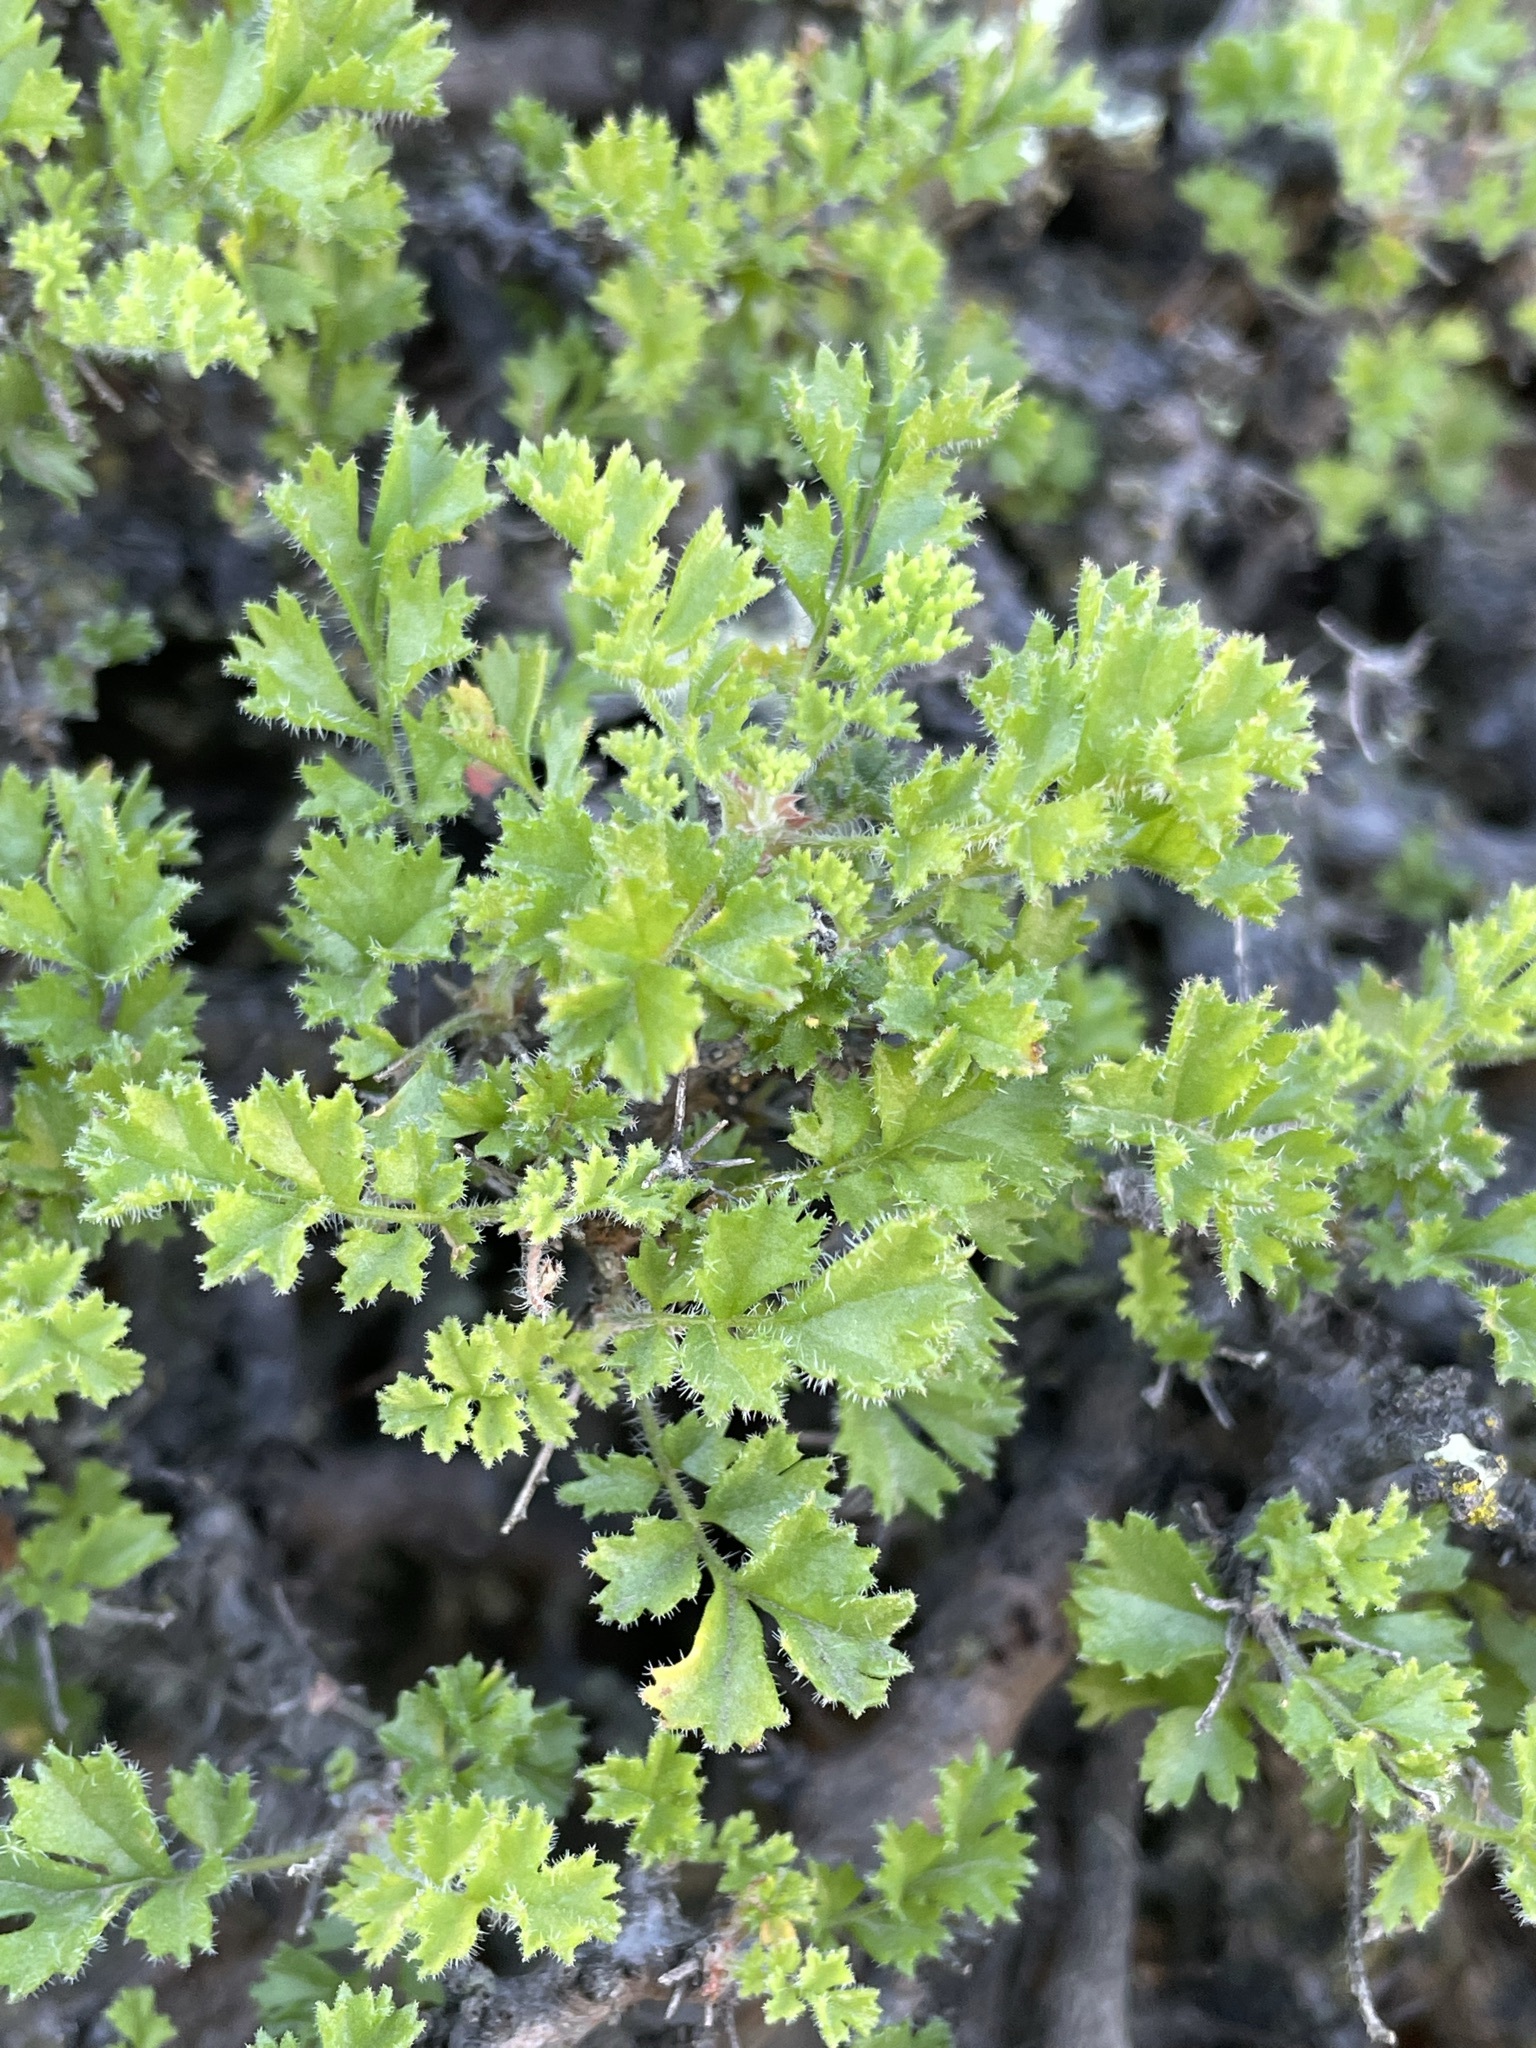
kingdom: Plantae
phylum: Tracheophyta
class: Magnoliopsida
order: Geraniales
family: Geraniaceae
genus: Pelargonium
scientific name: Pelargonium alternans
